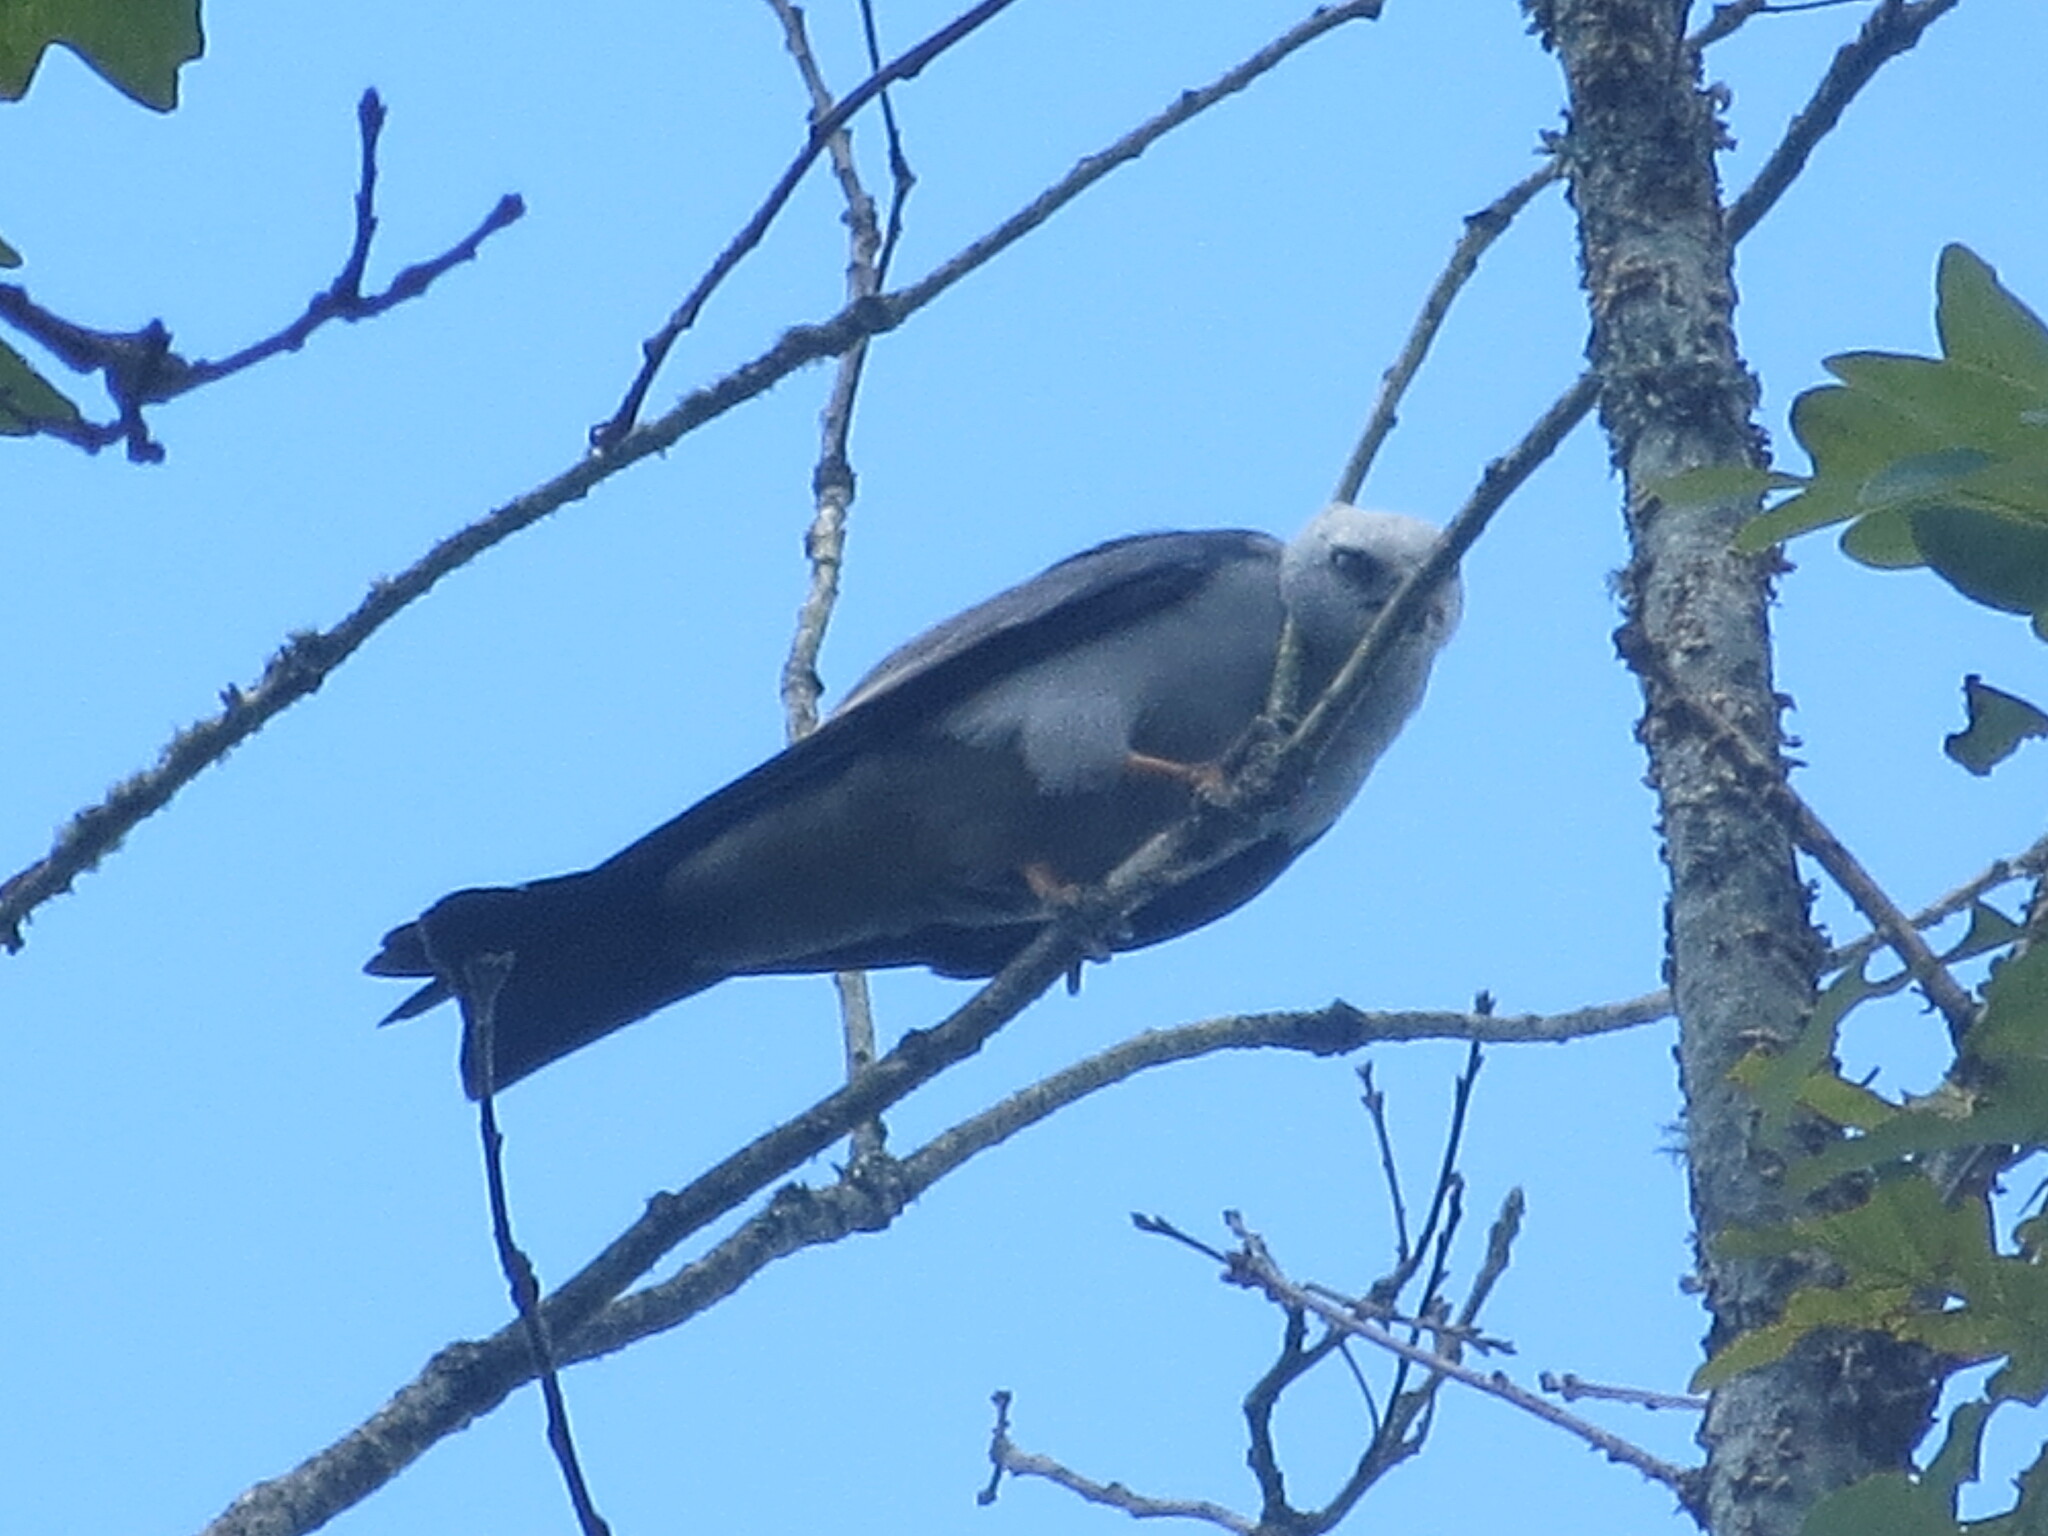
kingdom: Animalia
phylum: Chordata
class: Aves
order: Accipitriformes
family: Accipitridae
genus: Ictinia
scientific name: Ictinia mississippiensis
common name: Mississippi kite
